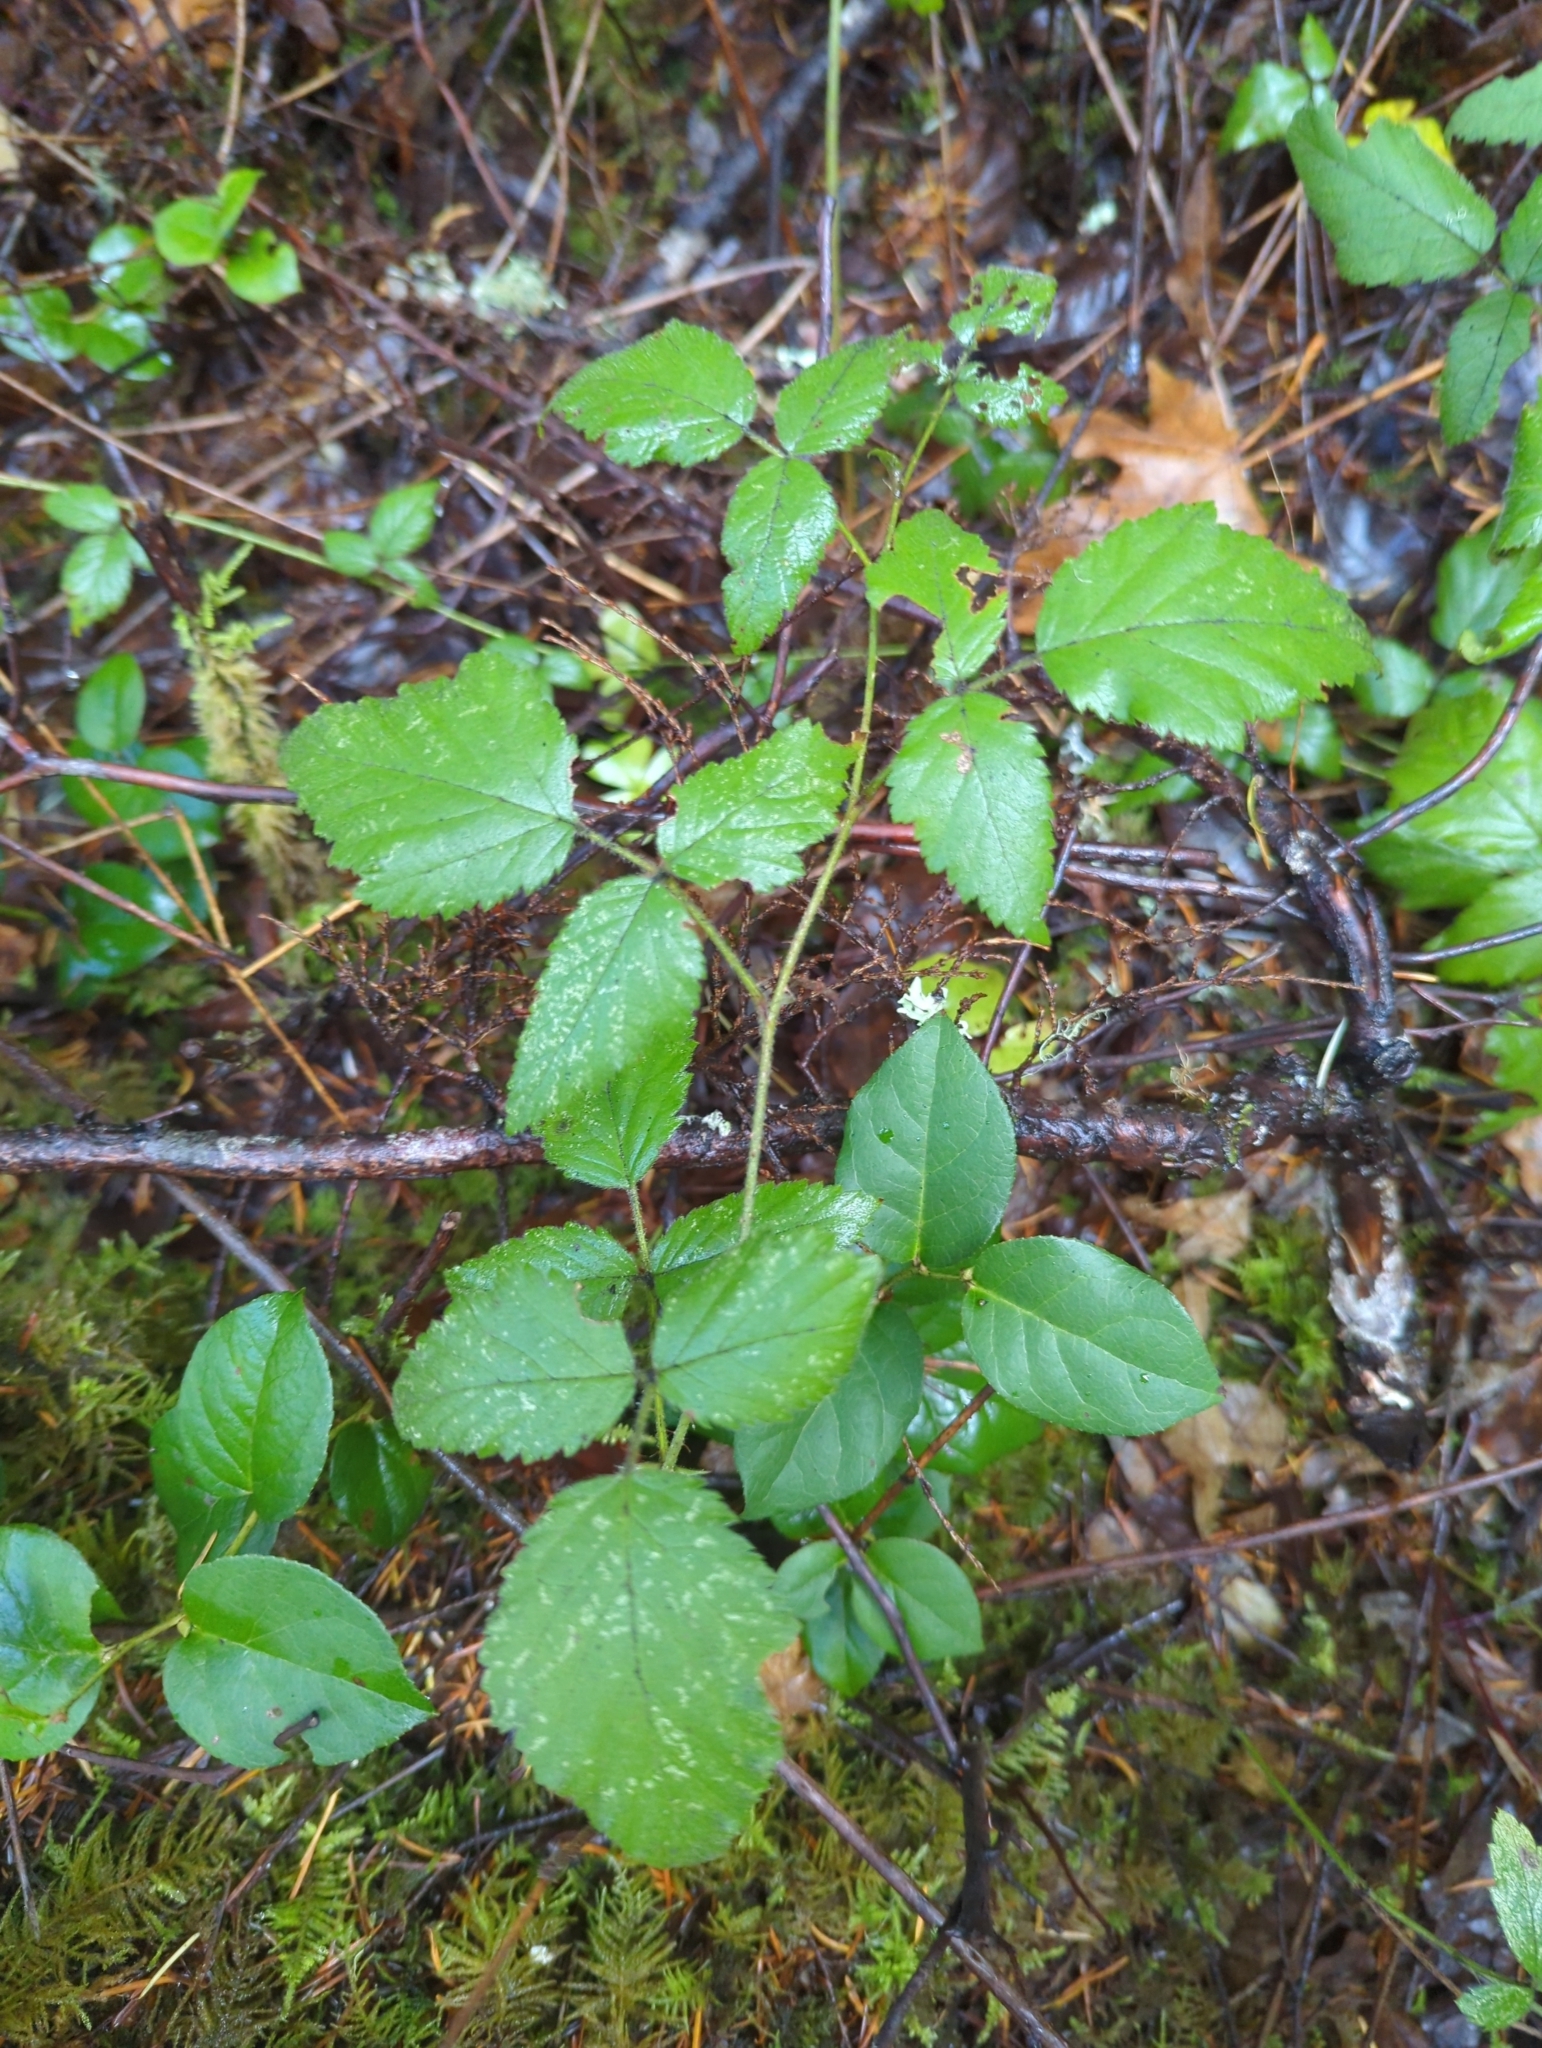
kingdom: Plantae
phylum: Tracheophyta
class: Magnoliopsida
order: Rosales
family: Rosaceae
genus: Rubus
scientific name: Rubus ursinus
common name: Pacific blackberry
